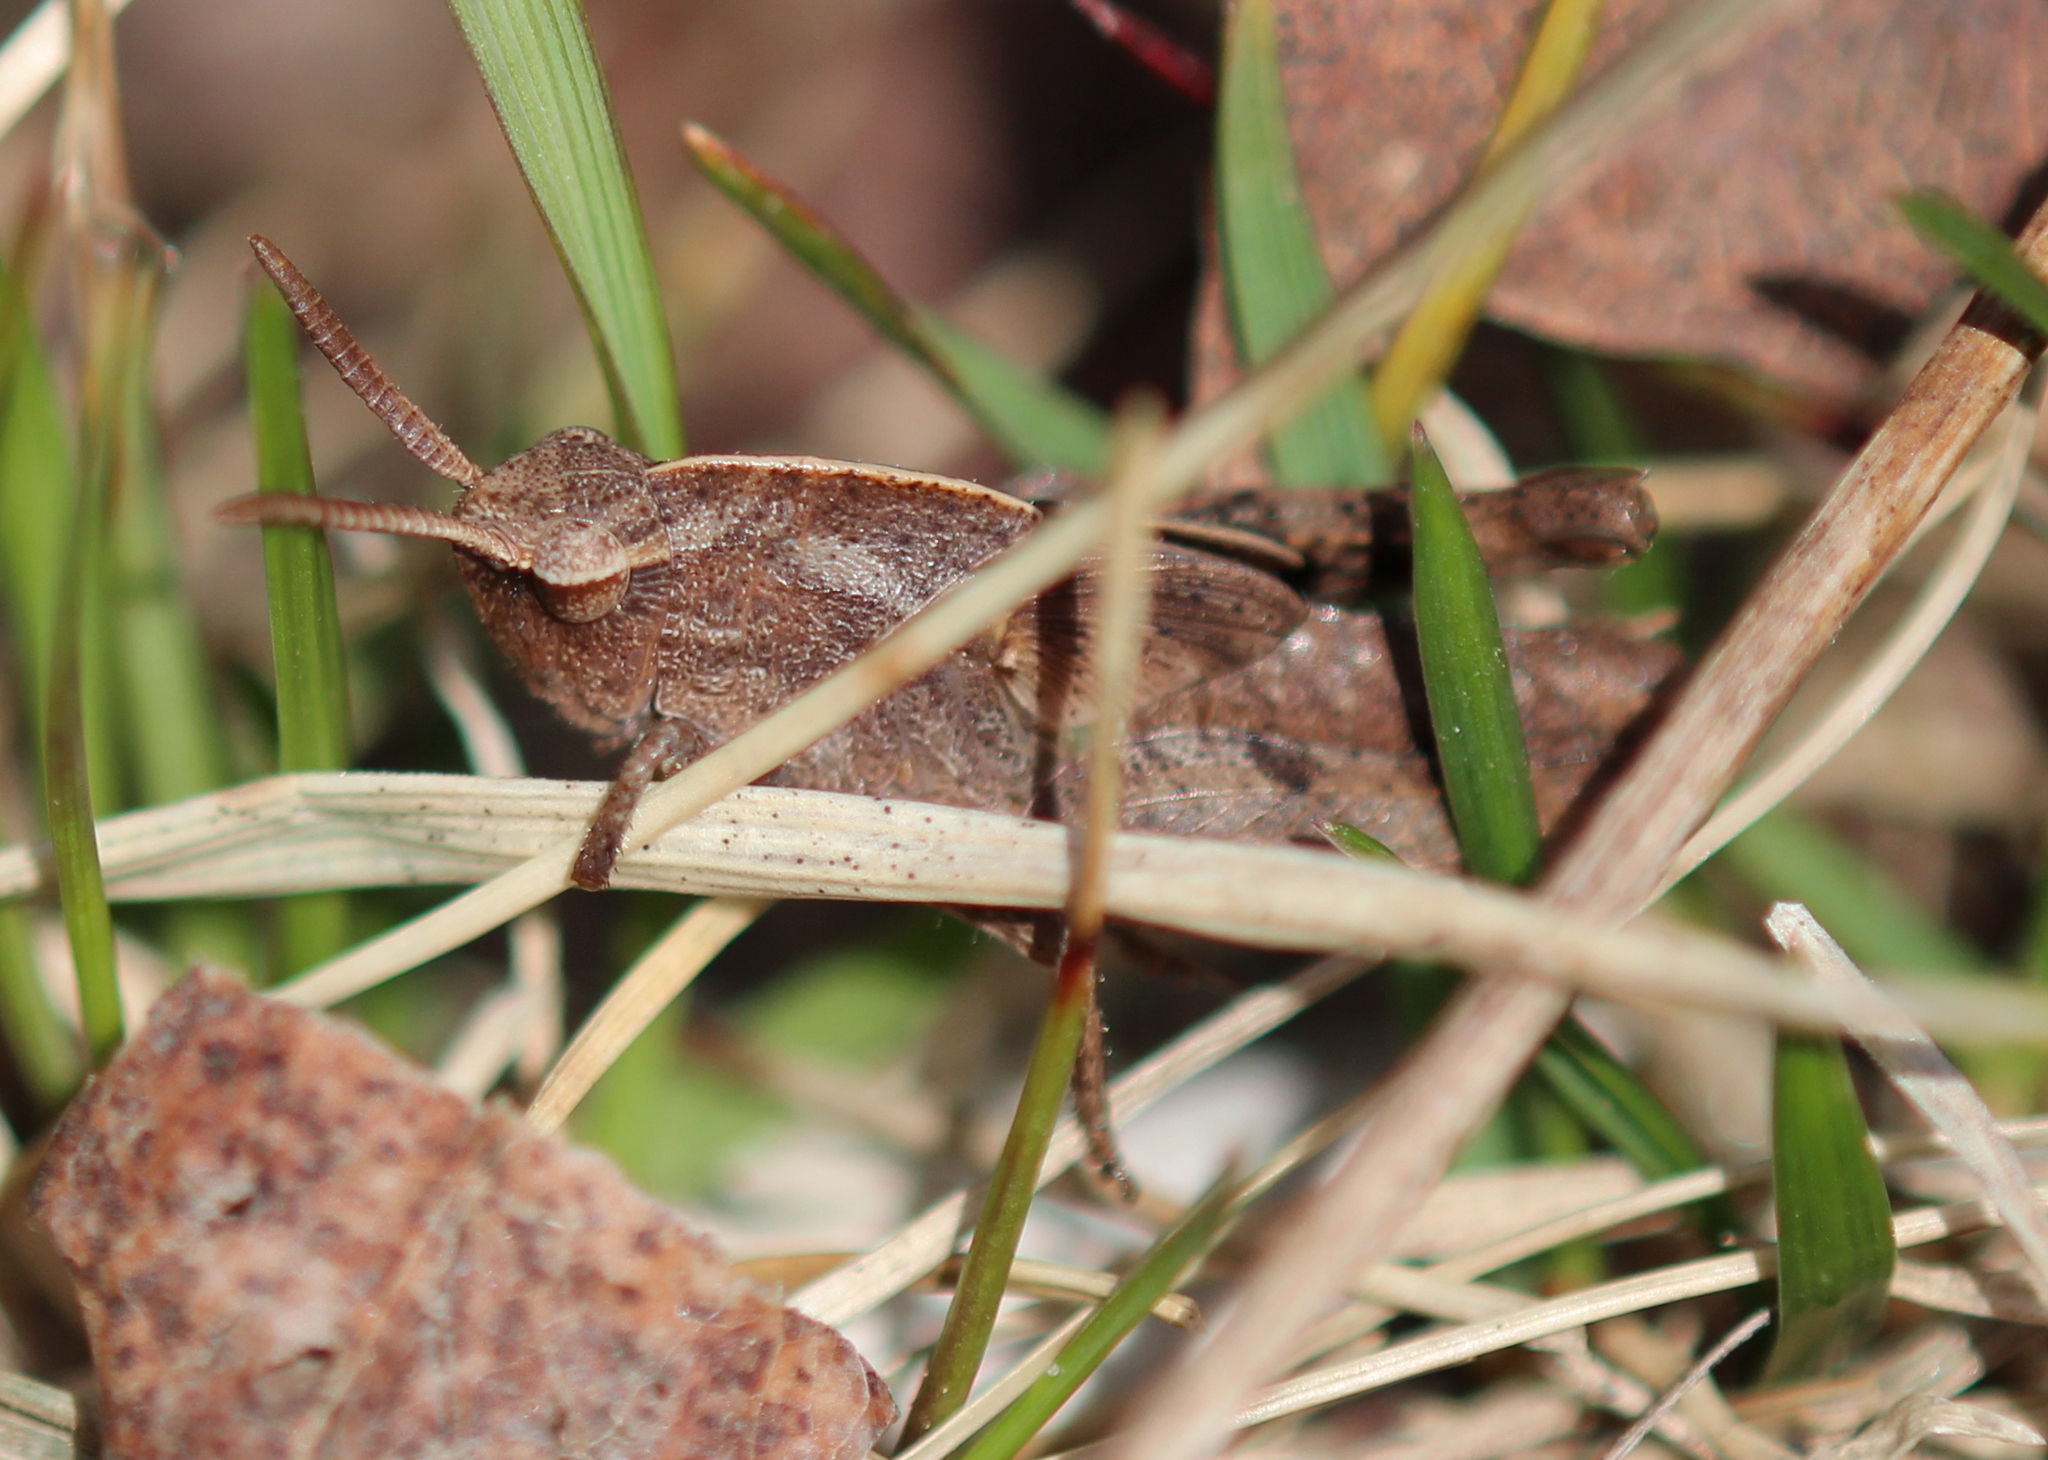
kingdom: Animalia
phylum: Arthropoda
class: Insecta
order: Orthoptera
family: Acrididae
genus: Chortophaga
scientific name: Chortophaga viridifasciata
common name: Green-striped grasshopper
